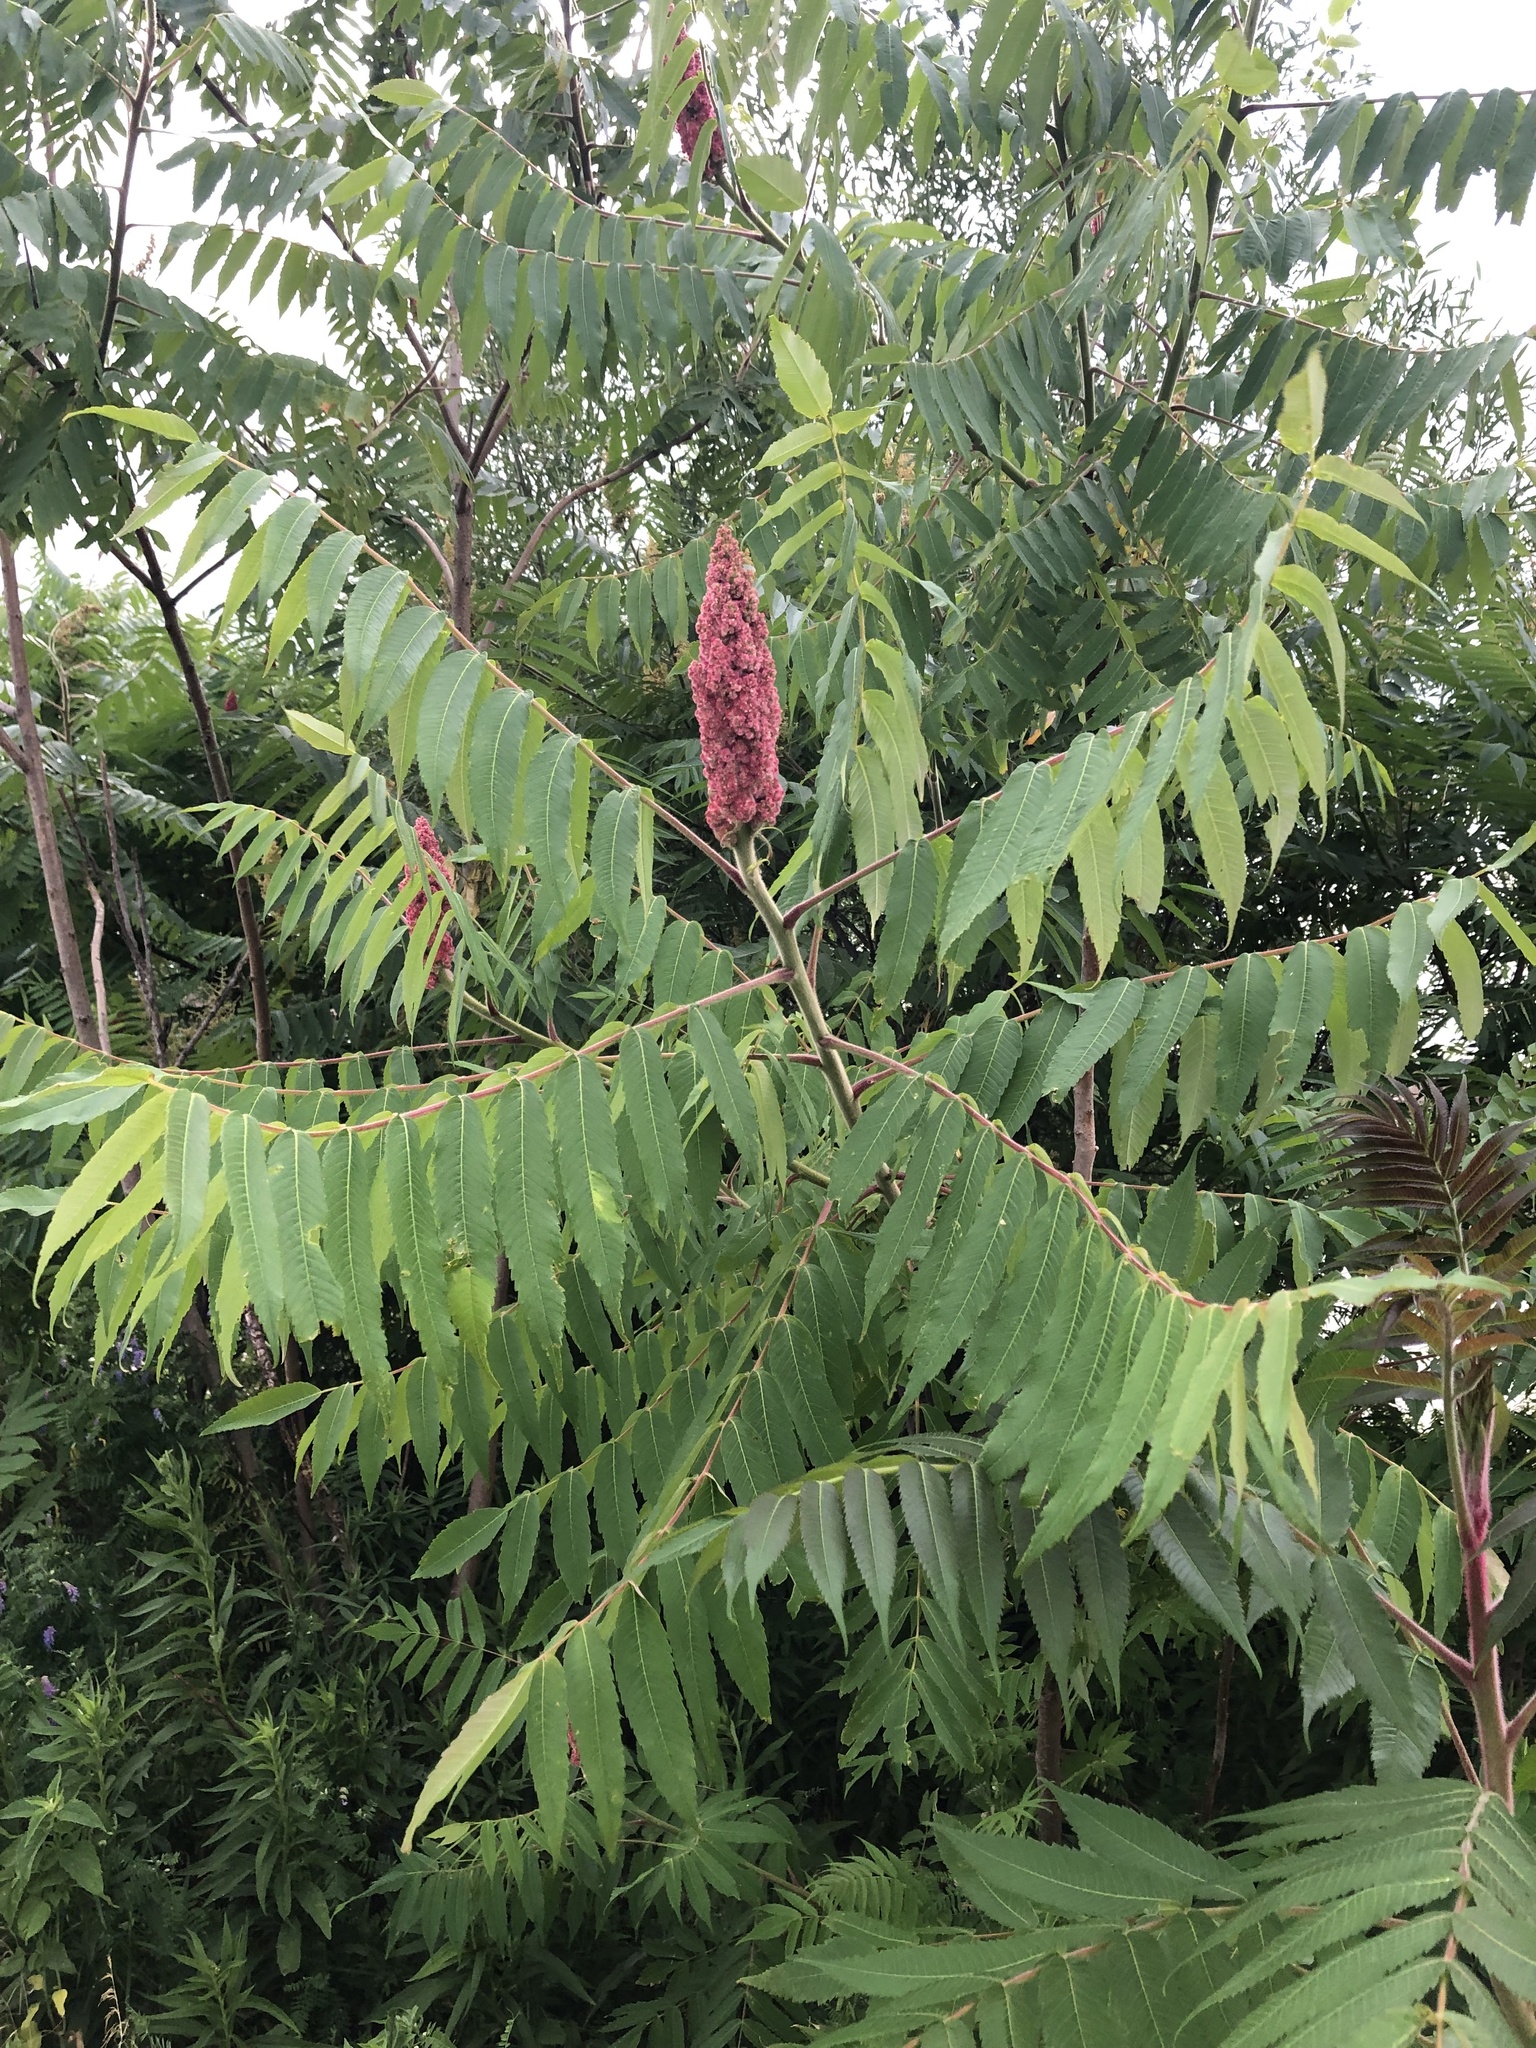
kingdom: Plantae
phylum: Tracheophyta
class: Magnoliopsida
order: Sapindales
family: Anacardiaceae
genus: Rhus
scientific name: Rhus typhina
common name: Staghorn sumac
